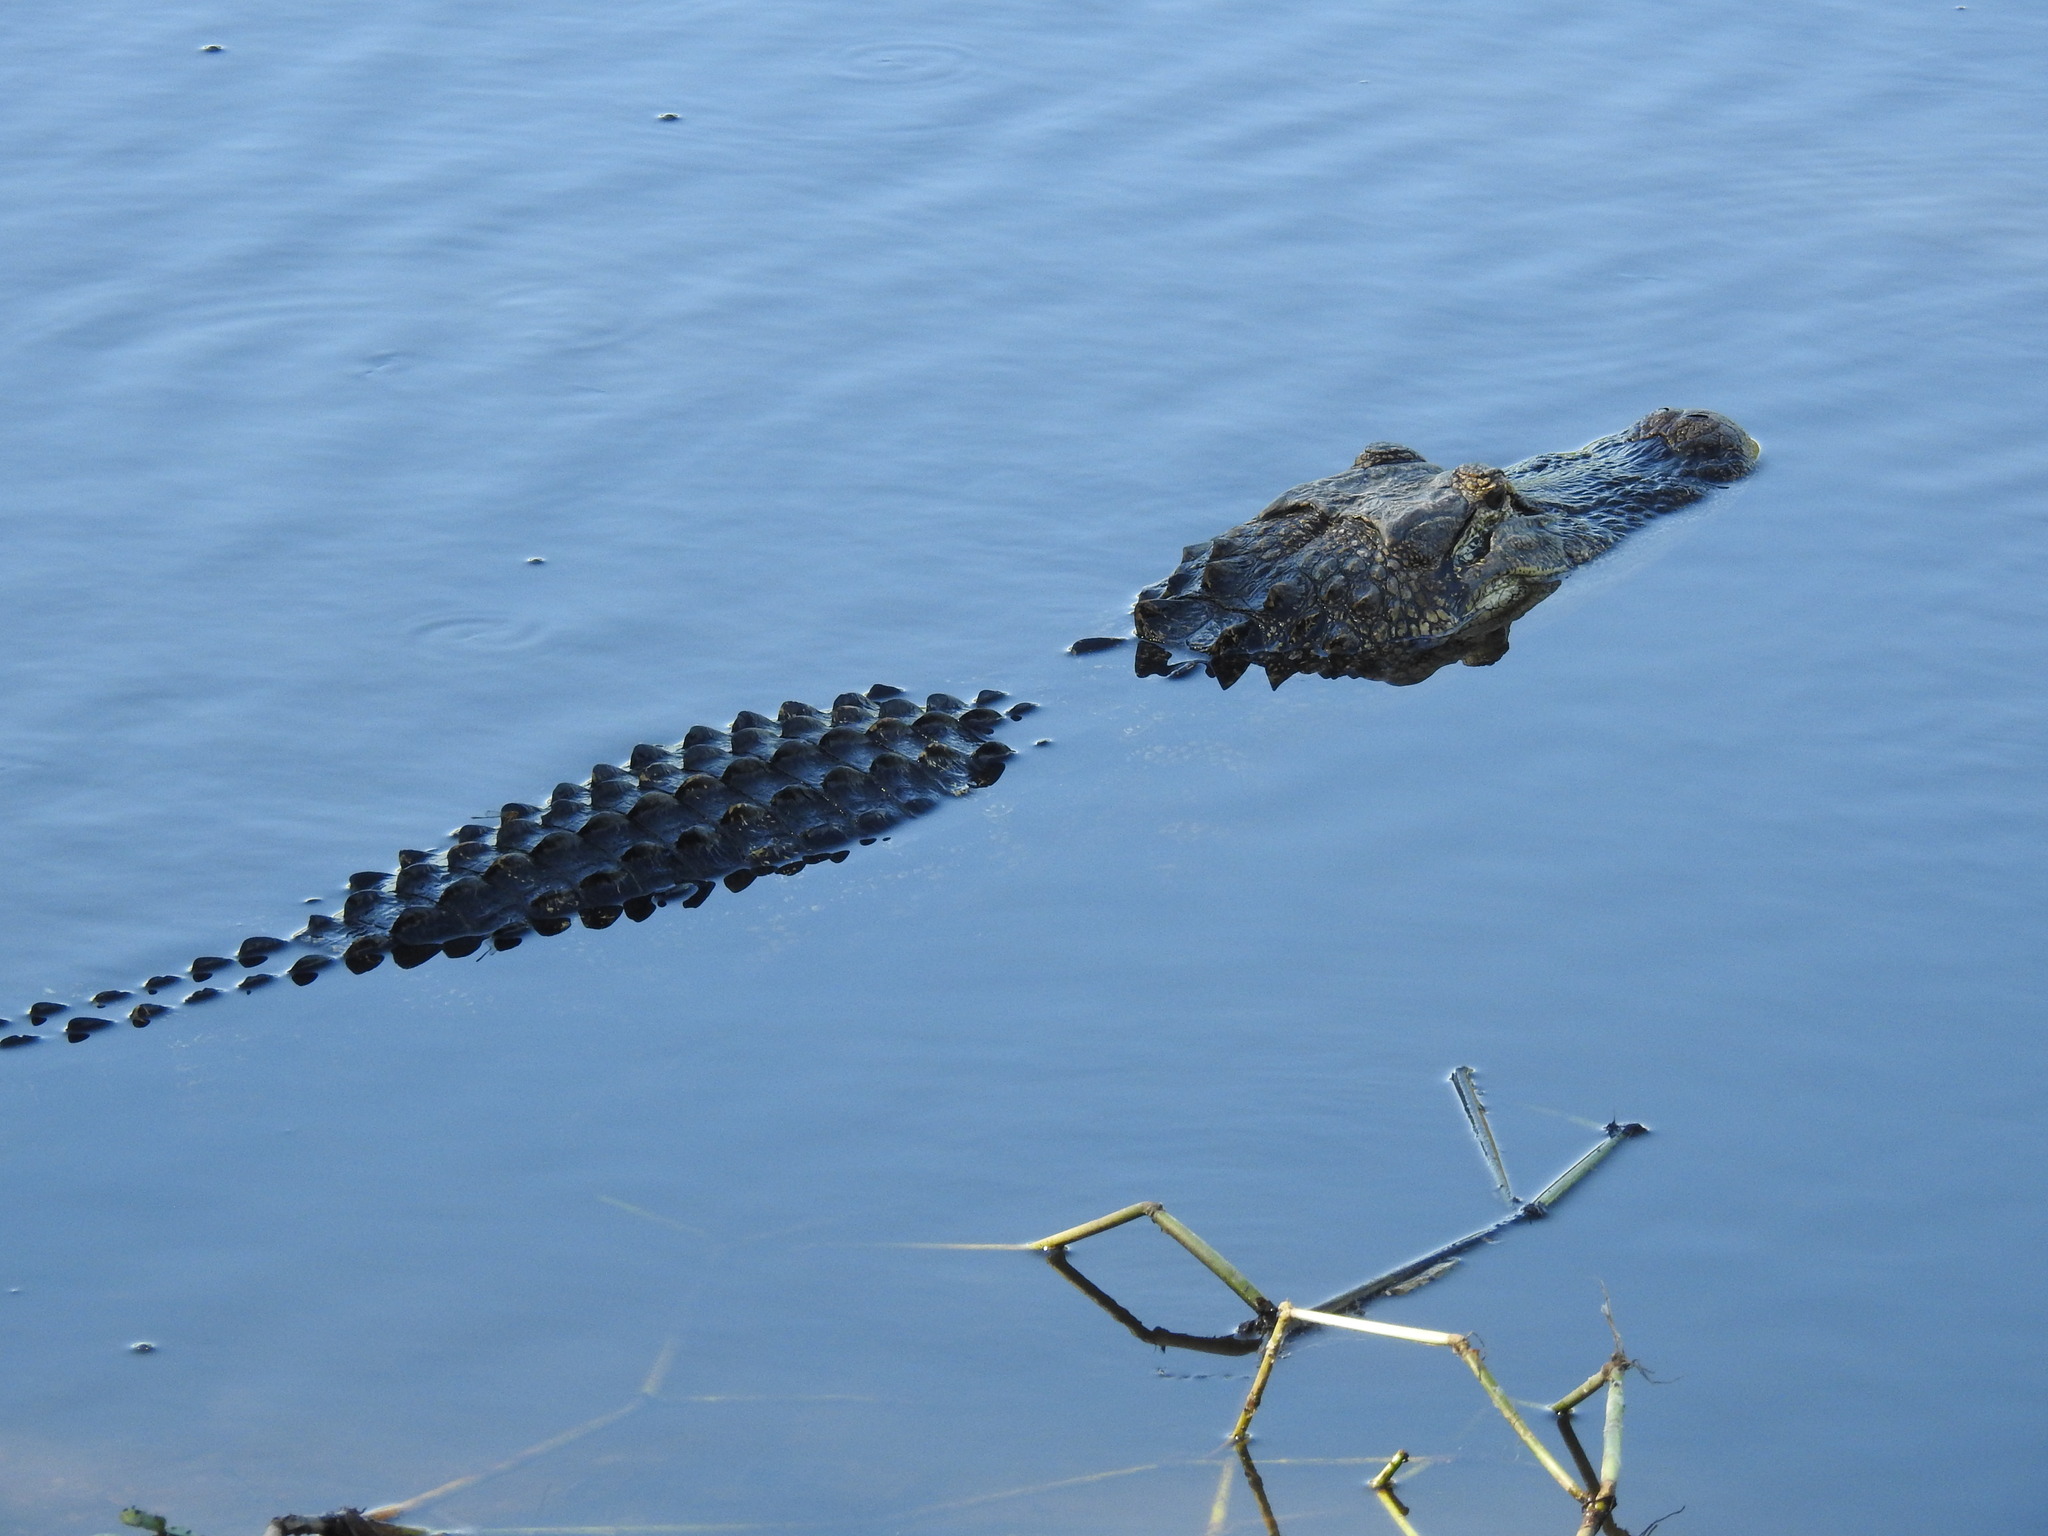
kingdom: Animalia
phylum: Chordata
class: Crocodylia
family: Alligatoridae
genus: Alligator
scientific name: Alligator mississippiensis
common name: American alligator
